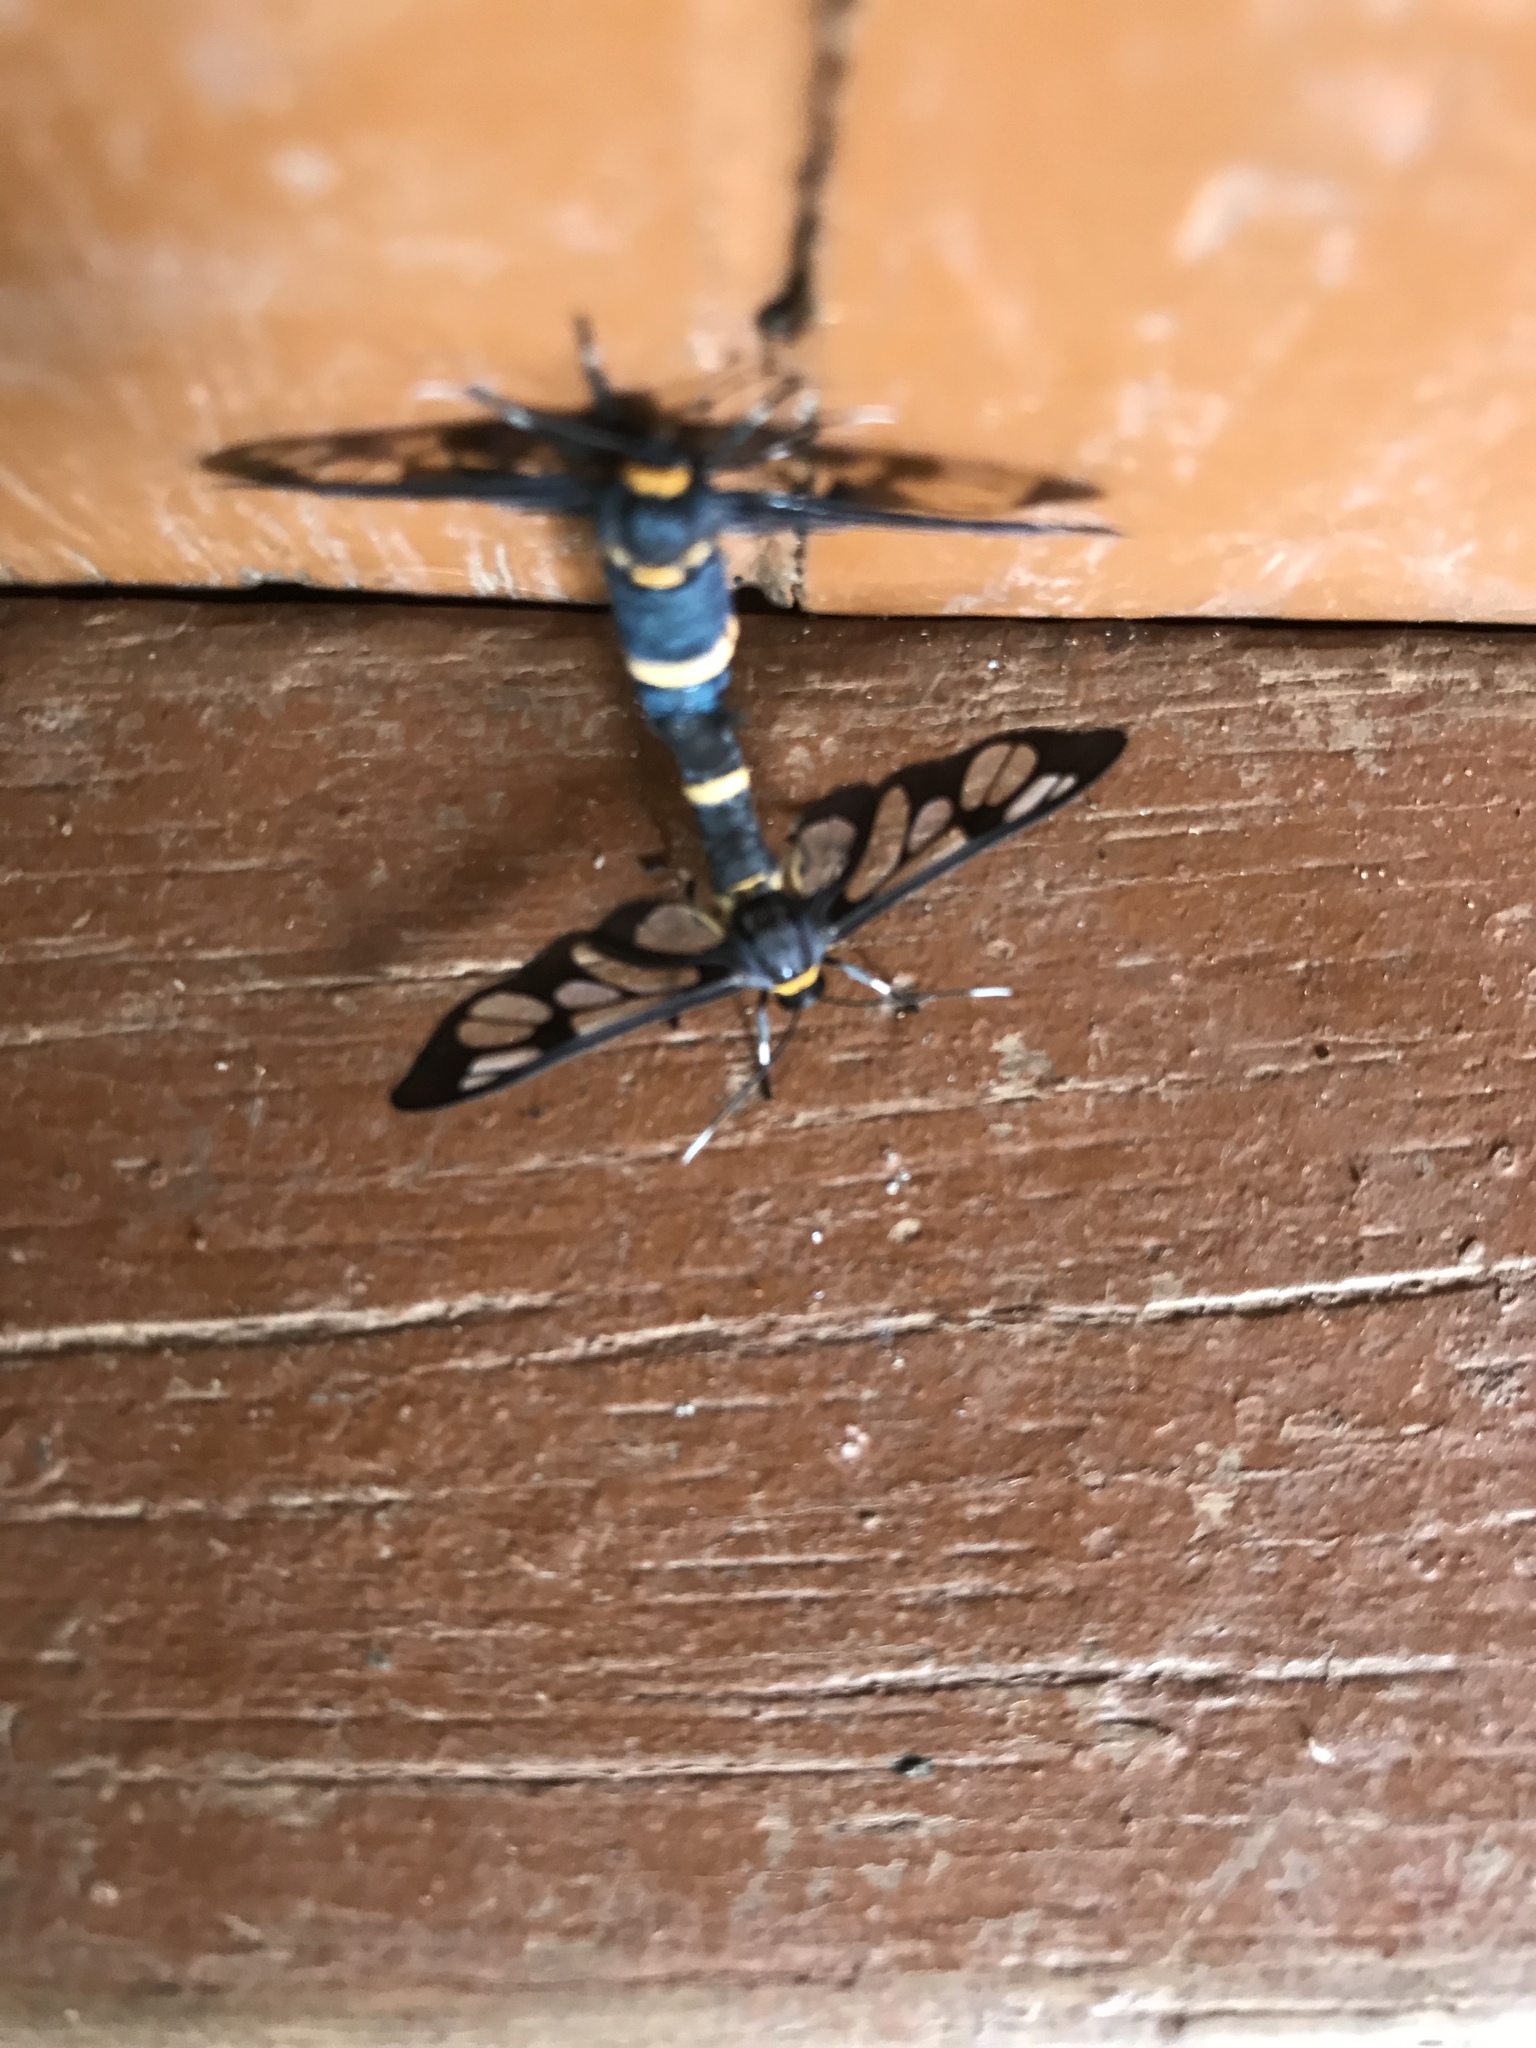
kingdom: Animalia
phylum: Arthropoda
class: Insecta
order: Lepidoptera
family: Erebidae
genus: Syntomoides
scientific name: Syntomoides imaon
